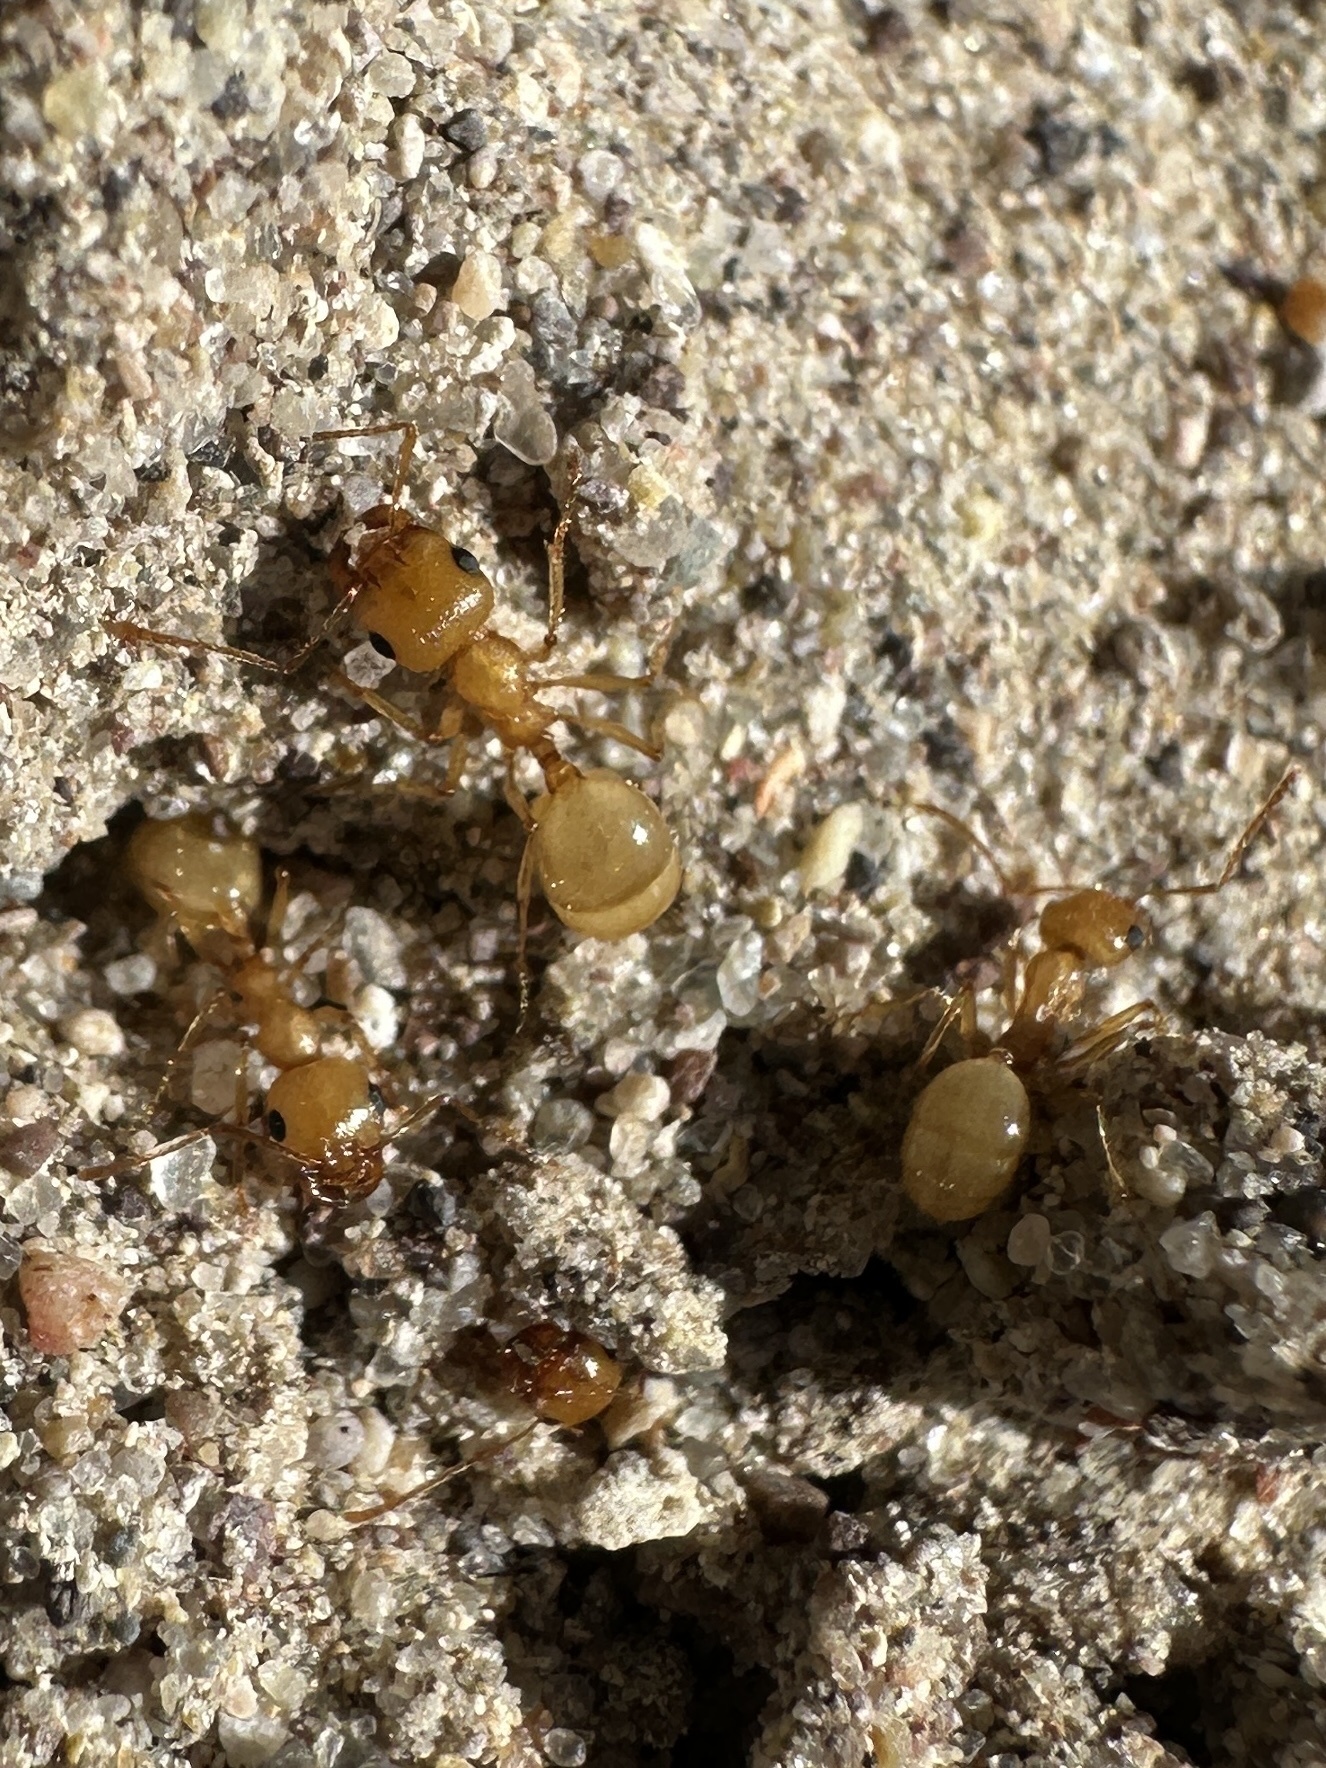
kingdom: Animalia
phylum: Arthropoda
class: Insecta
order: Hymenoptera
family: Formicidae
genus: Messor
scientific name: Messor lariversi
